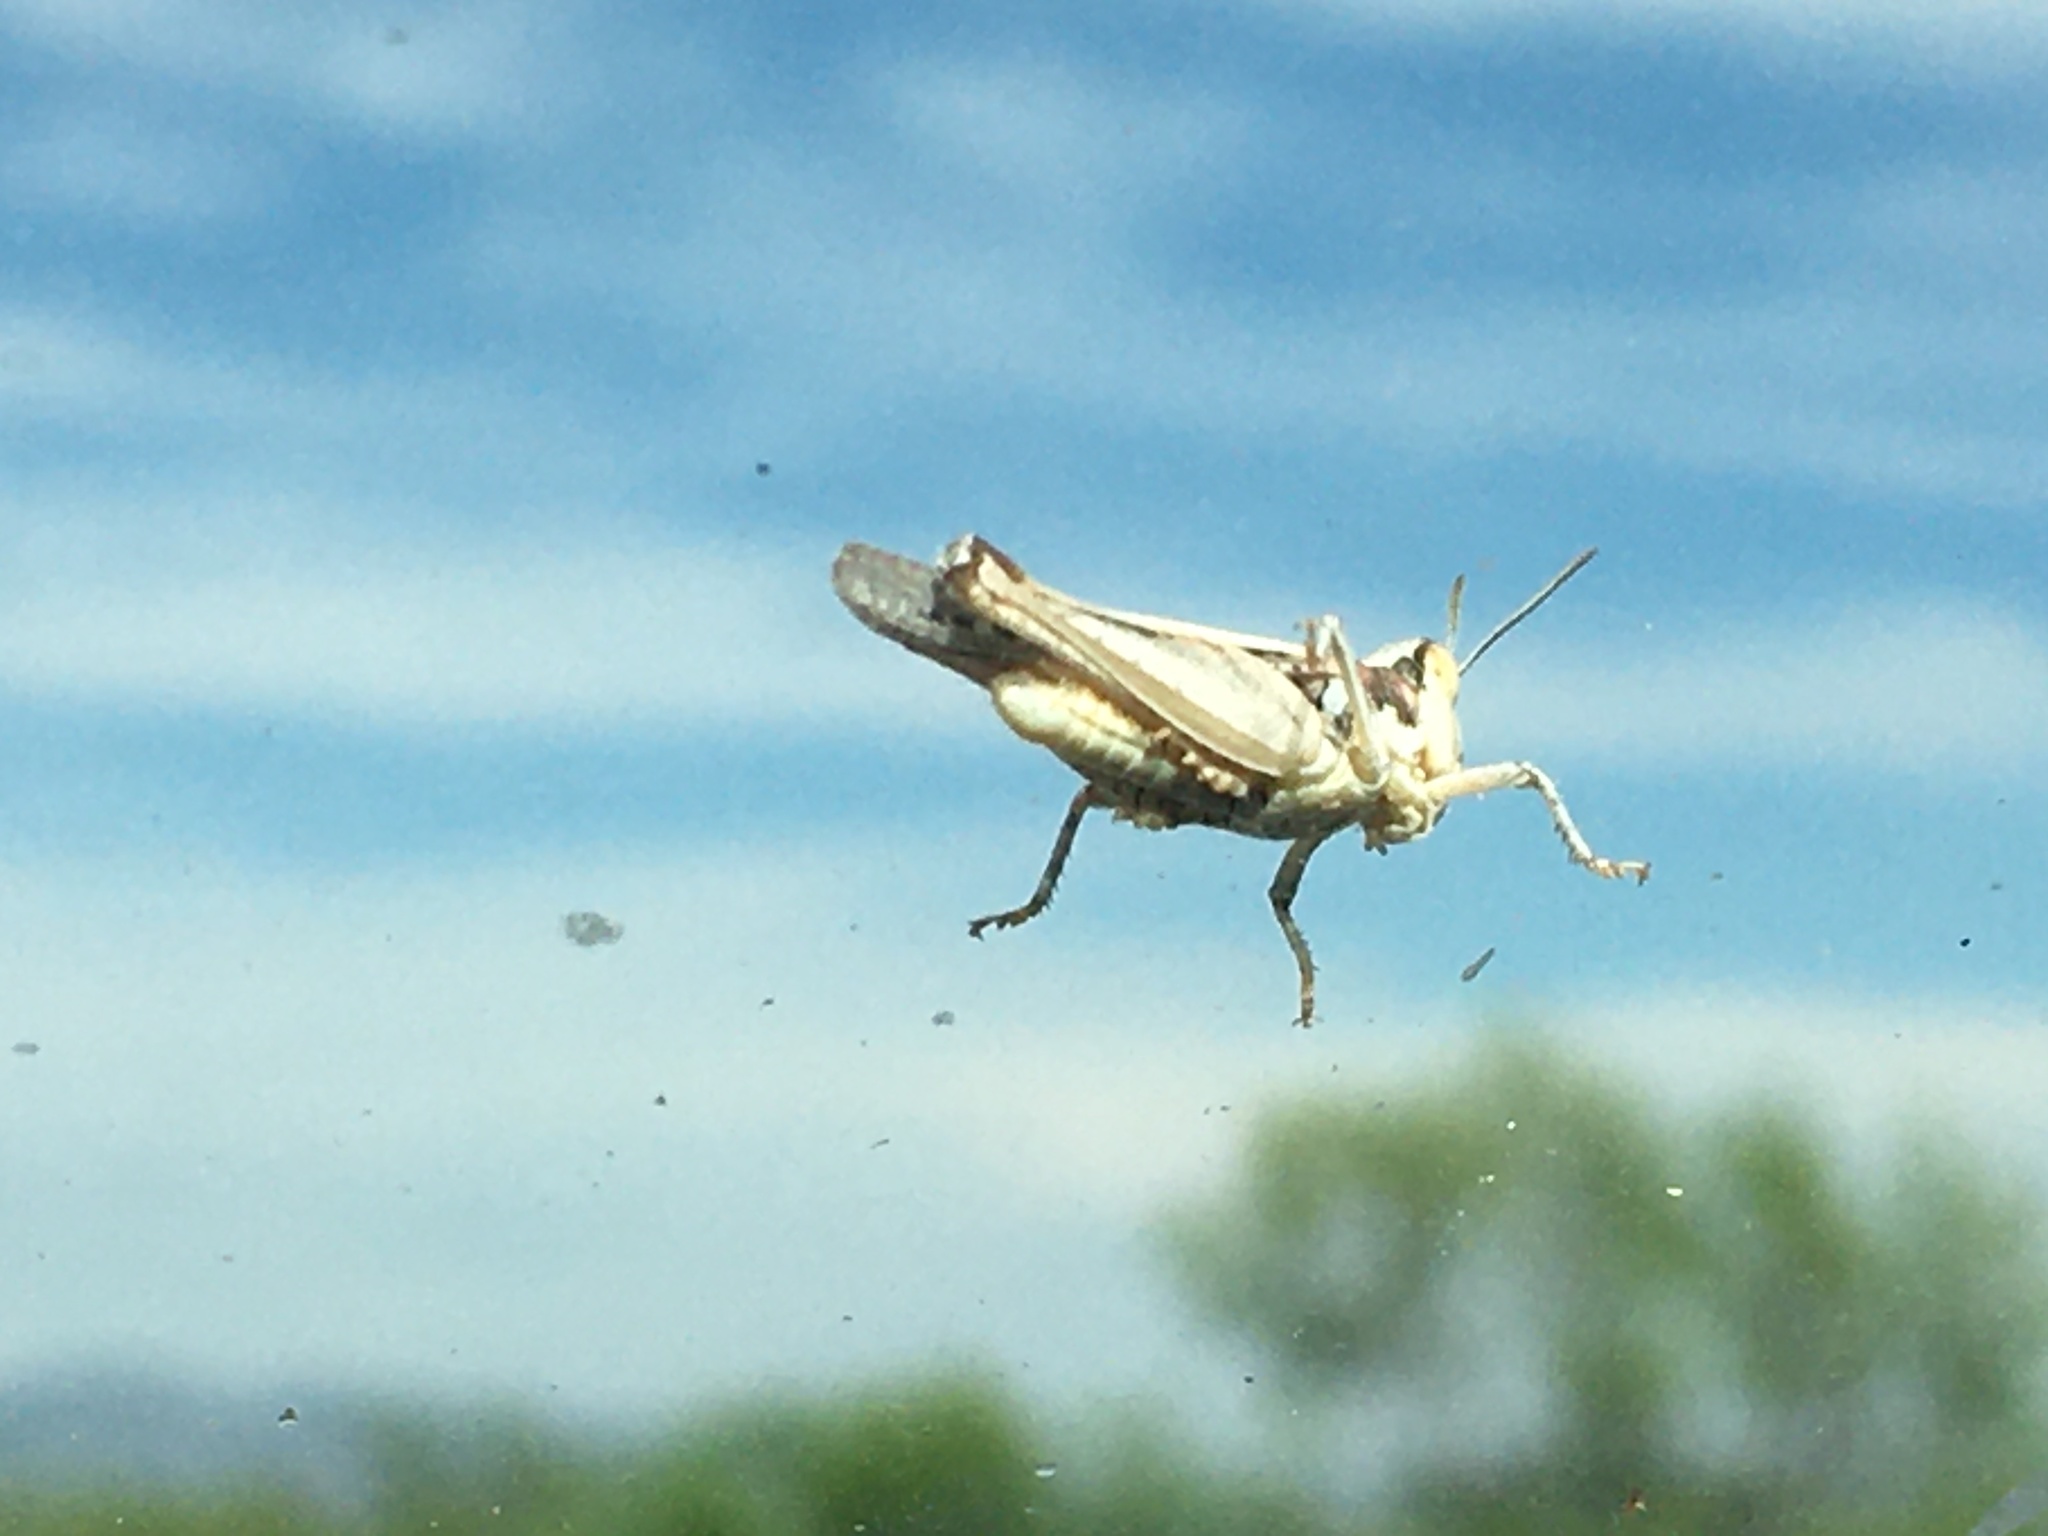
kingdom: Animalia
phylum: Arthropoda
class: Insecta
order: Orthoptera
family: Acrididae
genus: Cordillacris
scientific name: Cordillacris occipitalis
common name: Spotted-winged grasshopper
